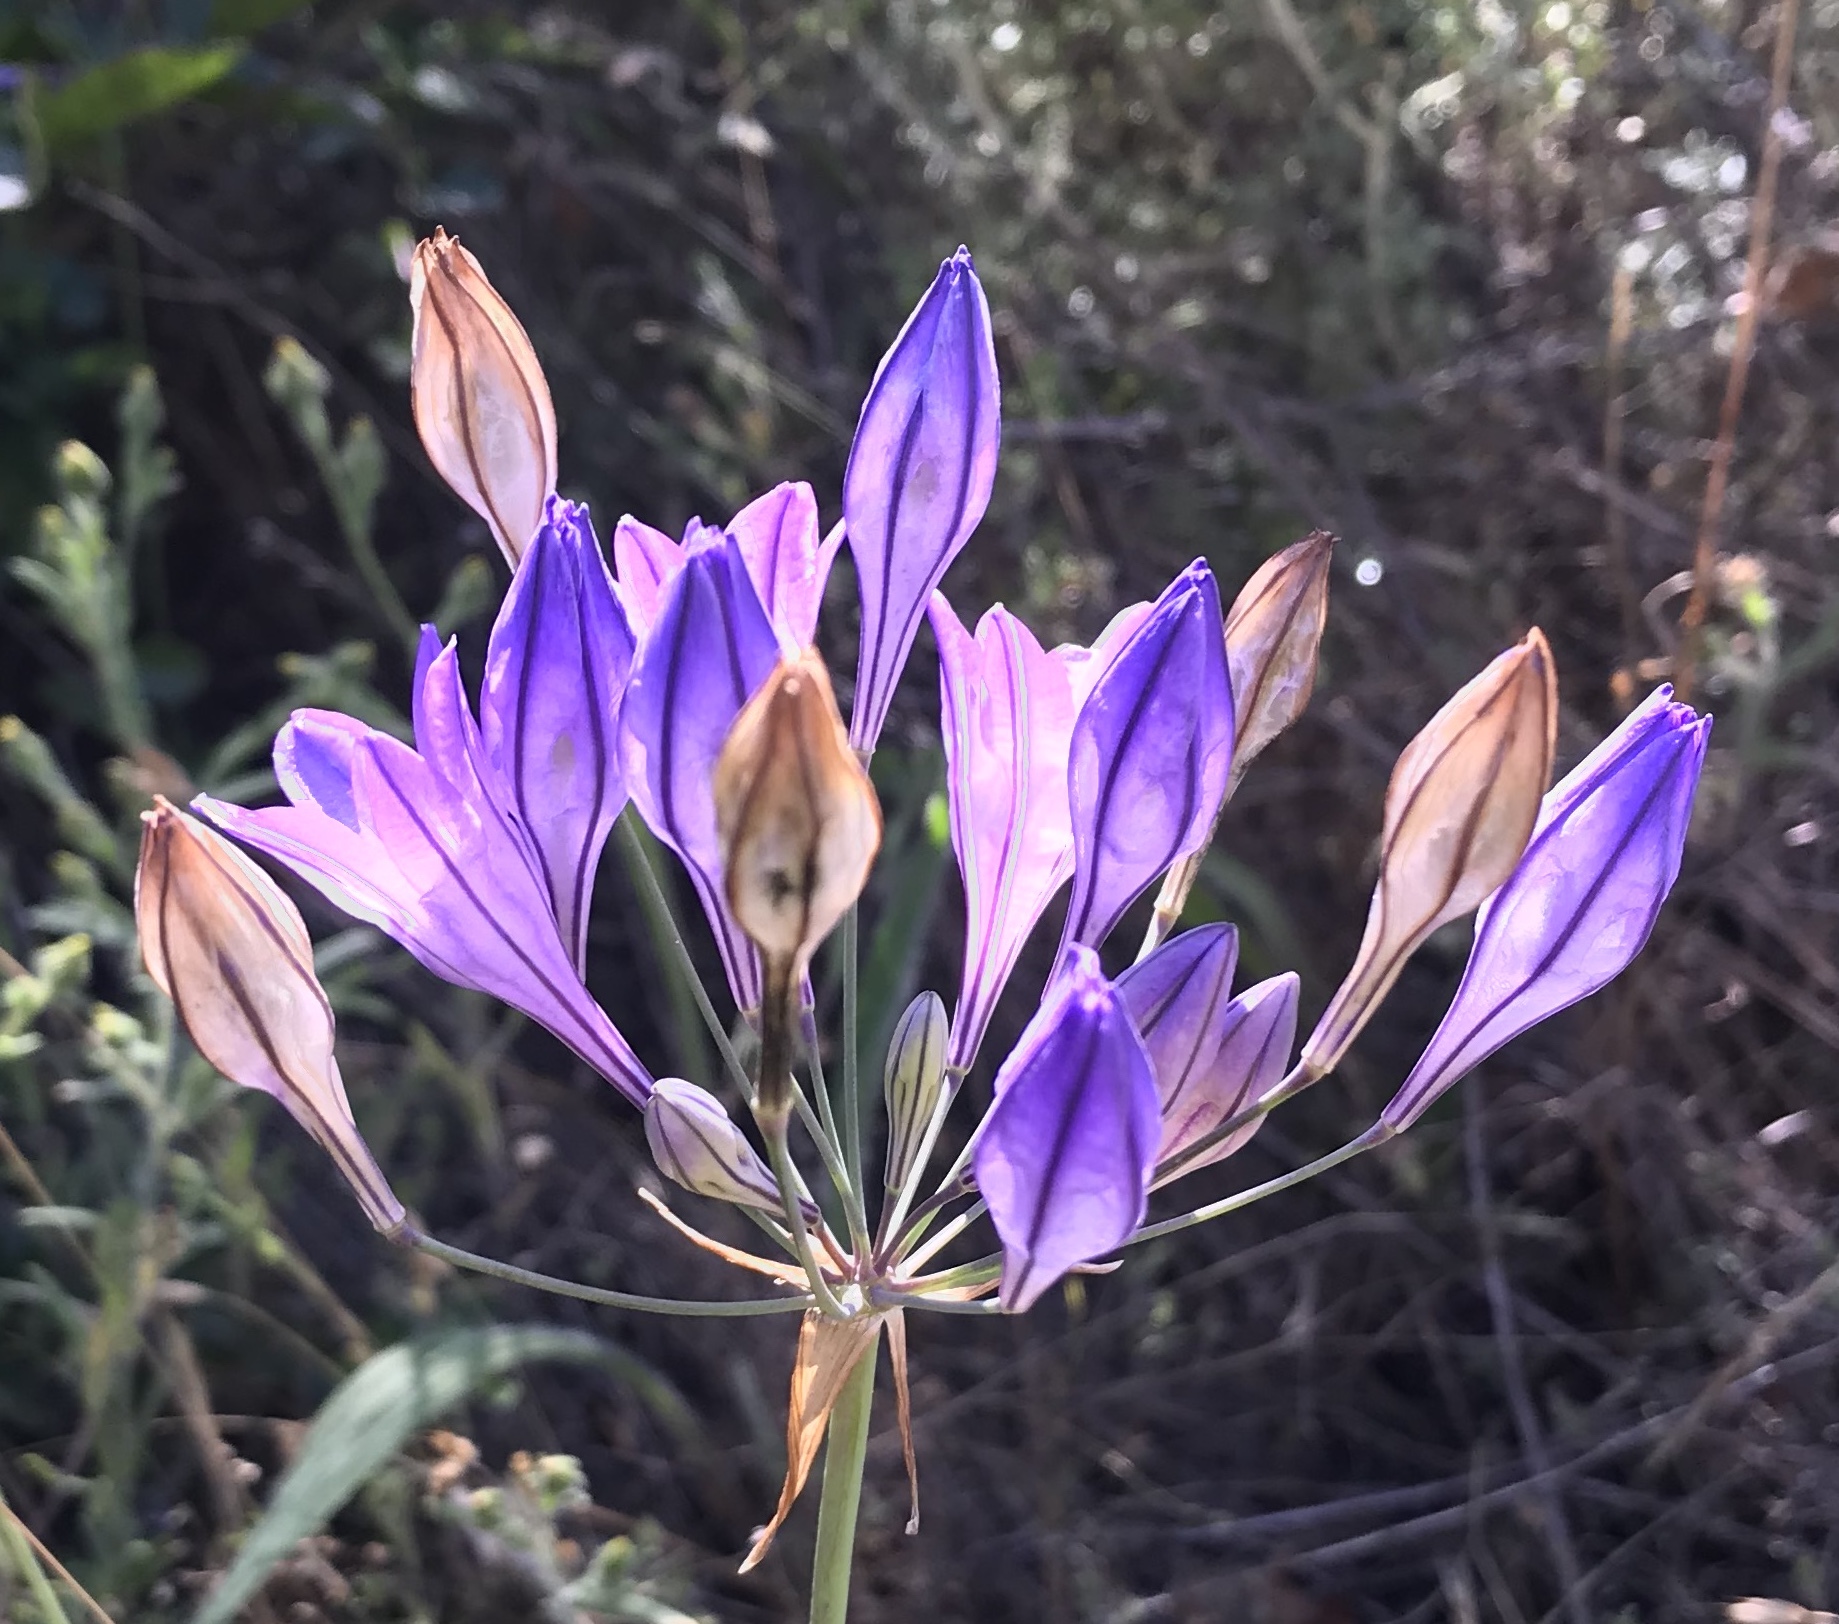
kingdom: Plantae
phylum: Tracheophyta
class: Liliopsida
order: Asparagales
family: Asparagaceae
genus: Triteleia
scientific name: Triteleia laxa
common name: Triplet-lily
